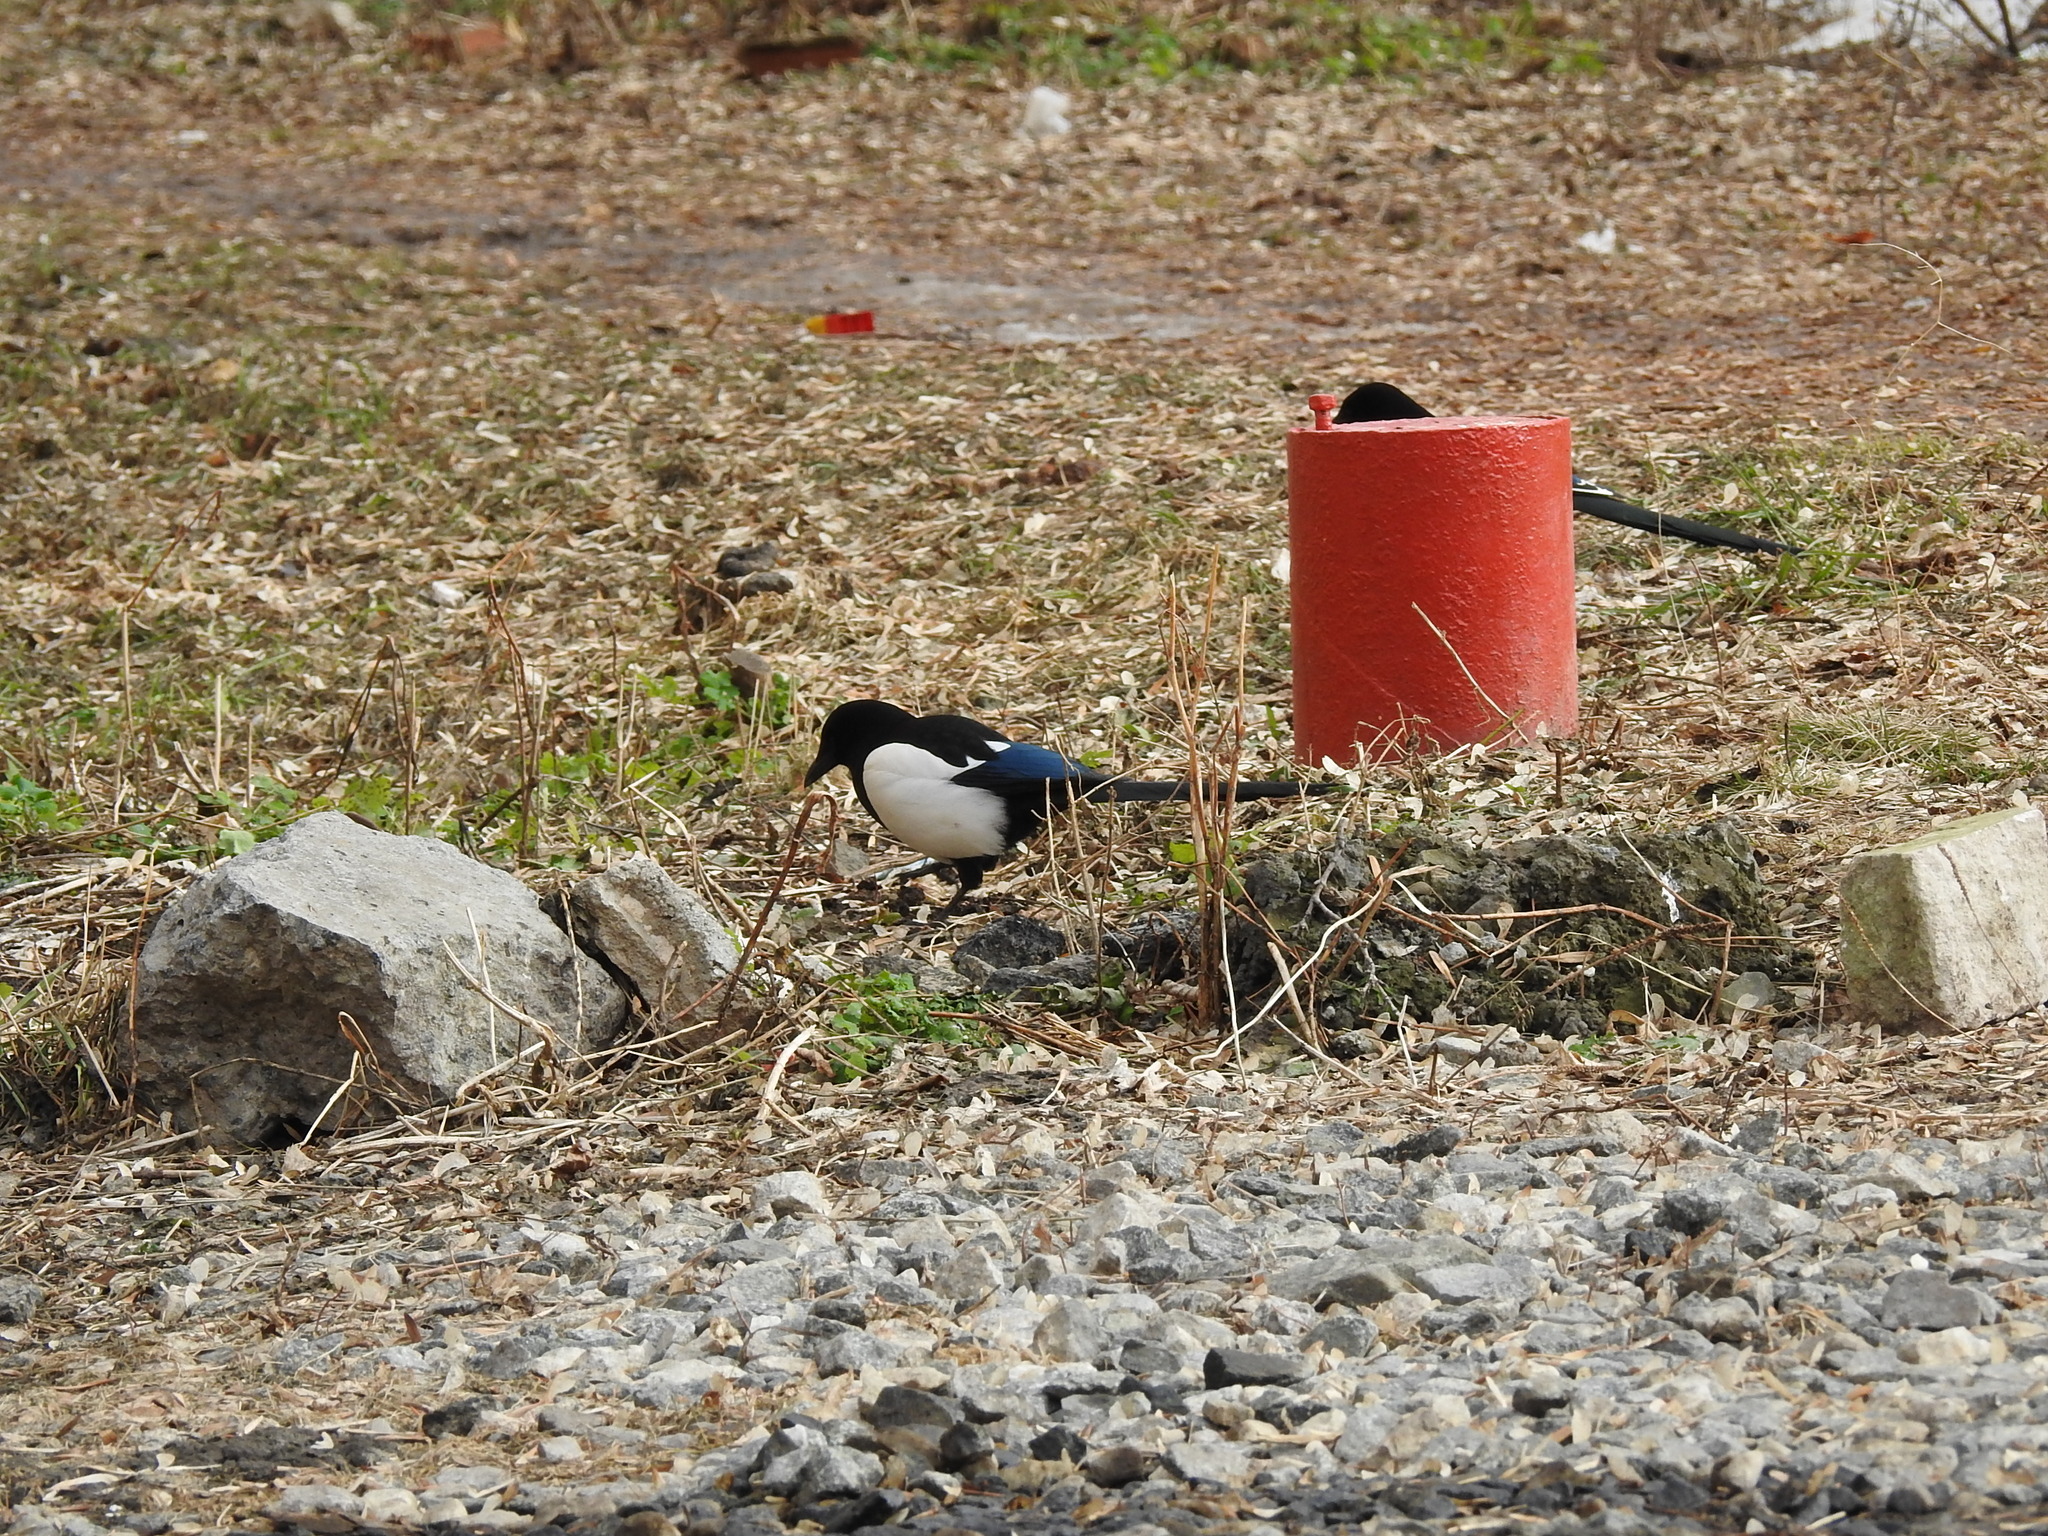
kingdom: Animalia
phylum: Chordata
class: Aves
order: Passeriformes
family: Corvidae
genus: Pica
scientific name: Pica pica
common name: Eurasian magpie
